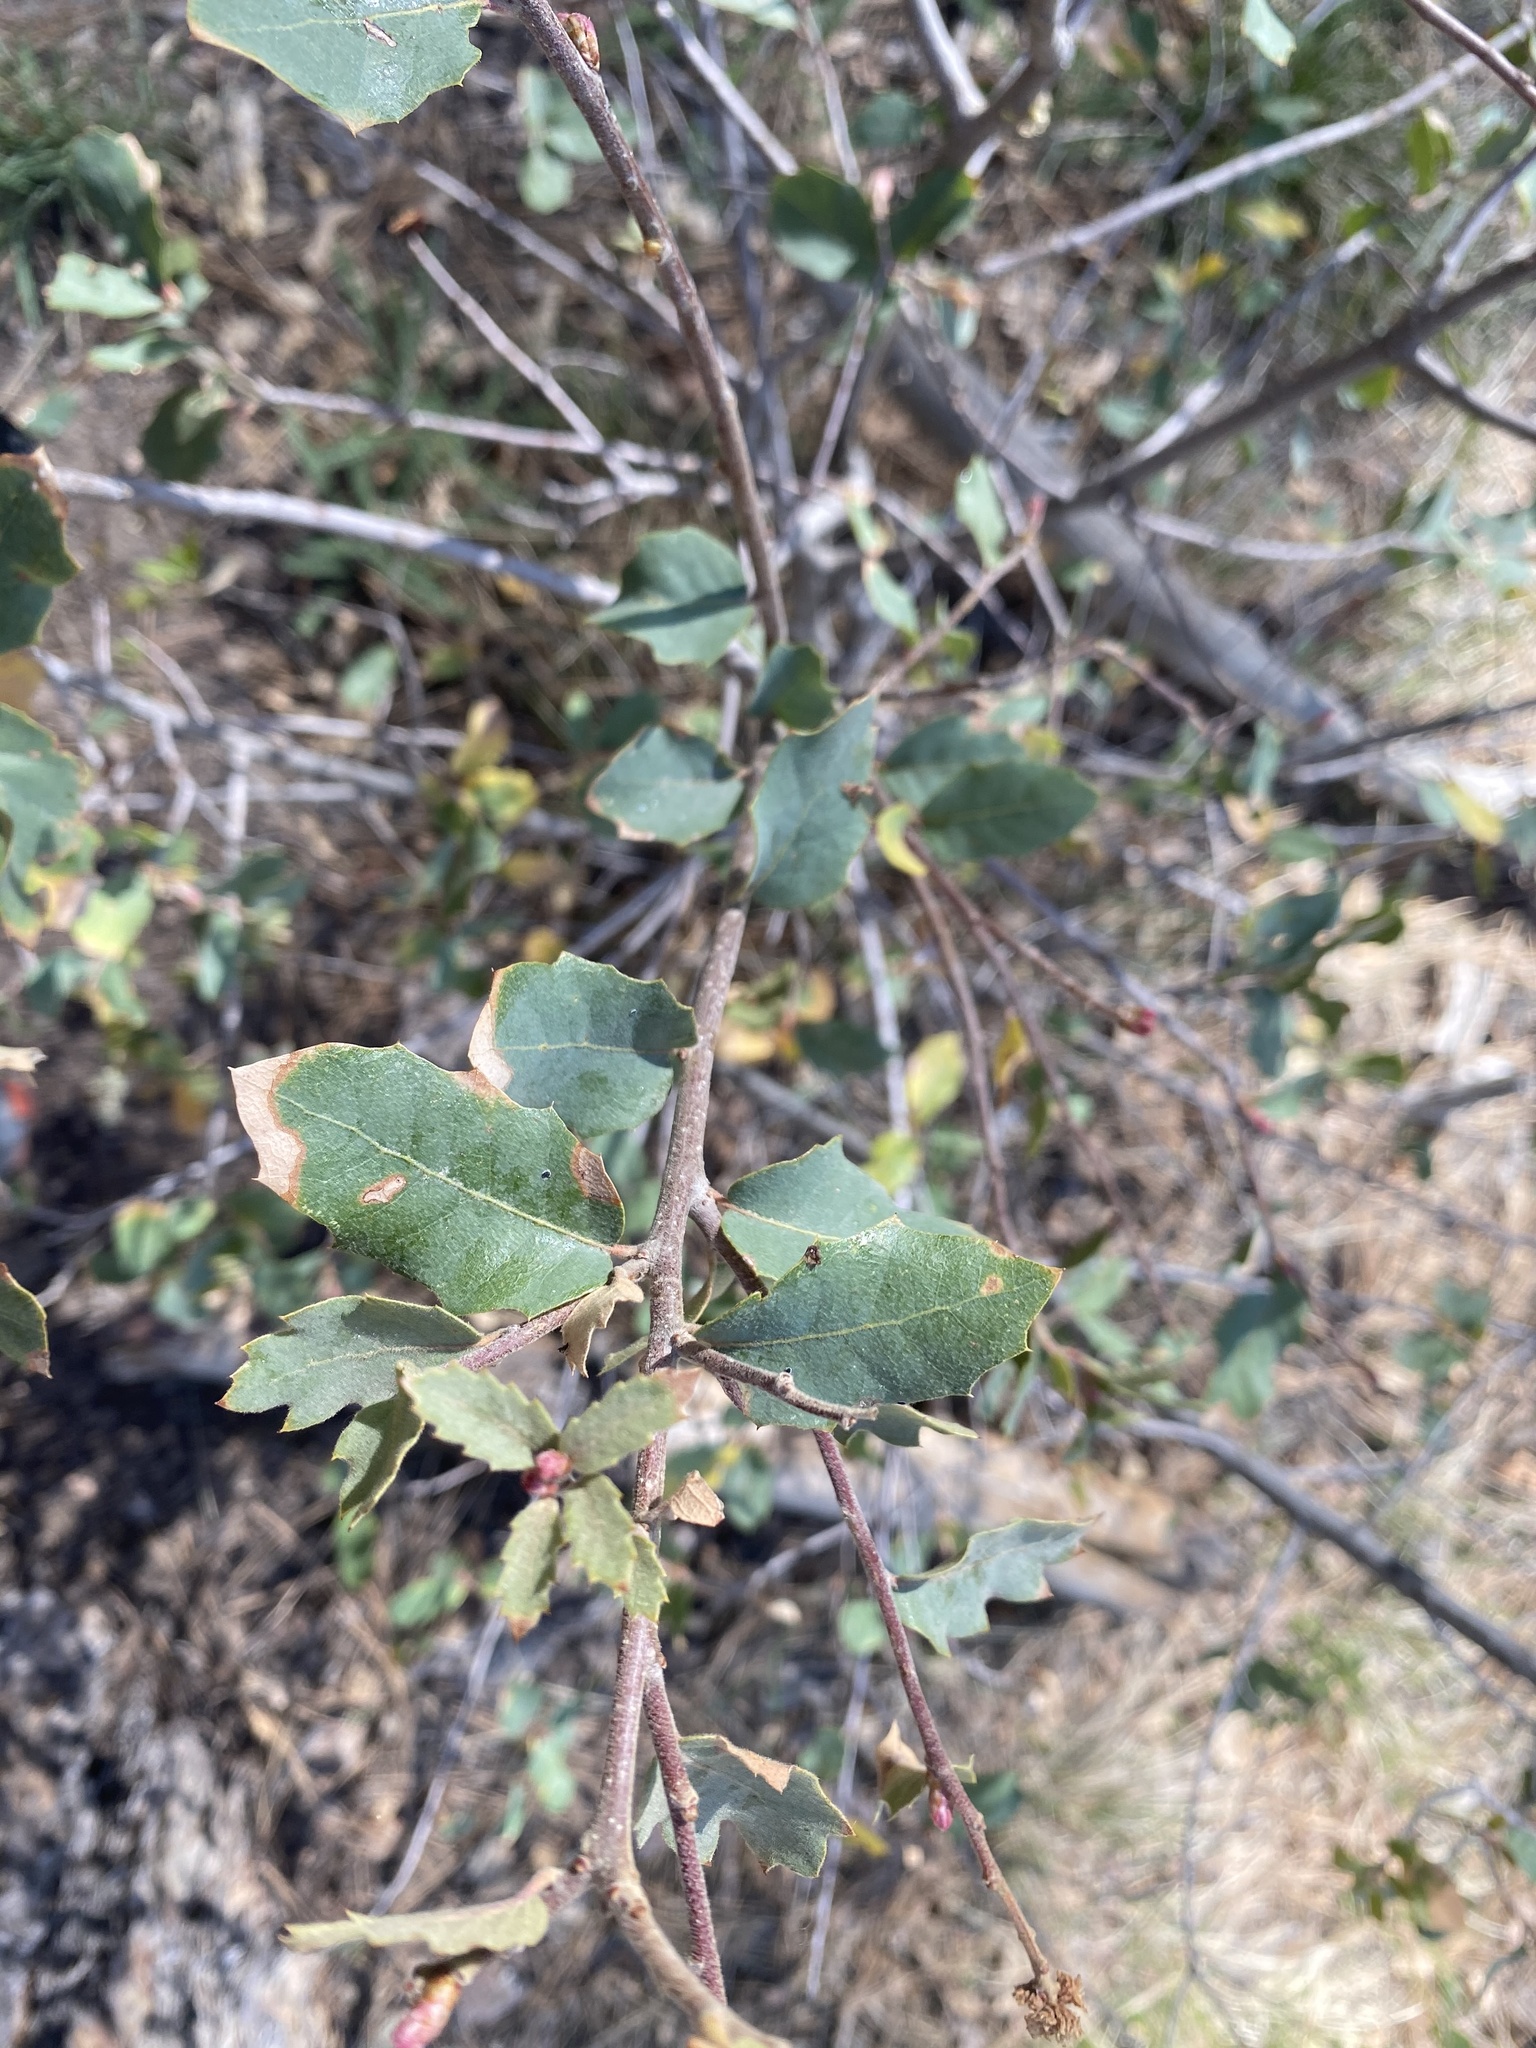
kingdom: Plantae
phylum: Tracheophyta
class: Magnoliopsida
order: Fagales
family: Fagaceae
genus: Quercus
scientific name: Quercus turbinella
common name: Sonoran scrub oak
